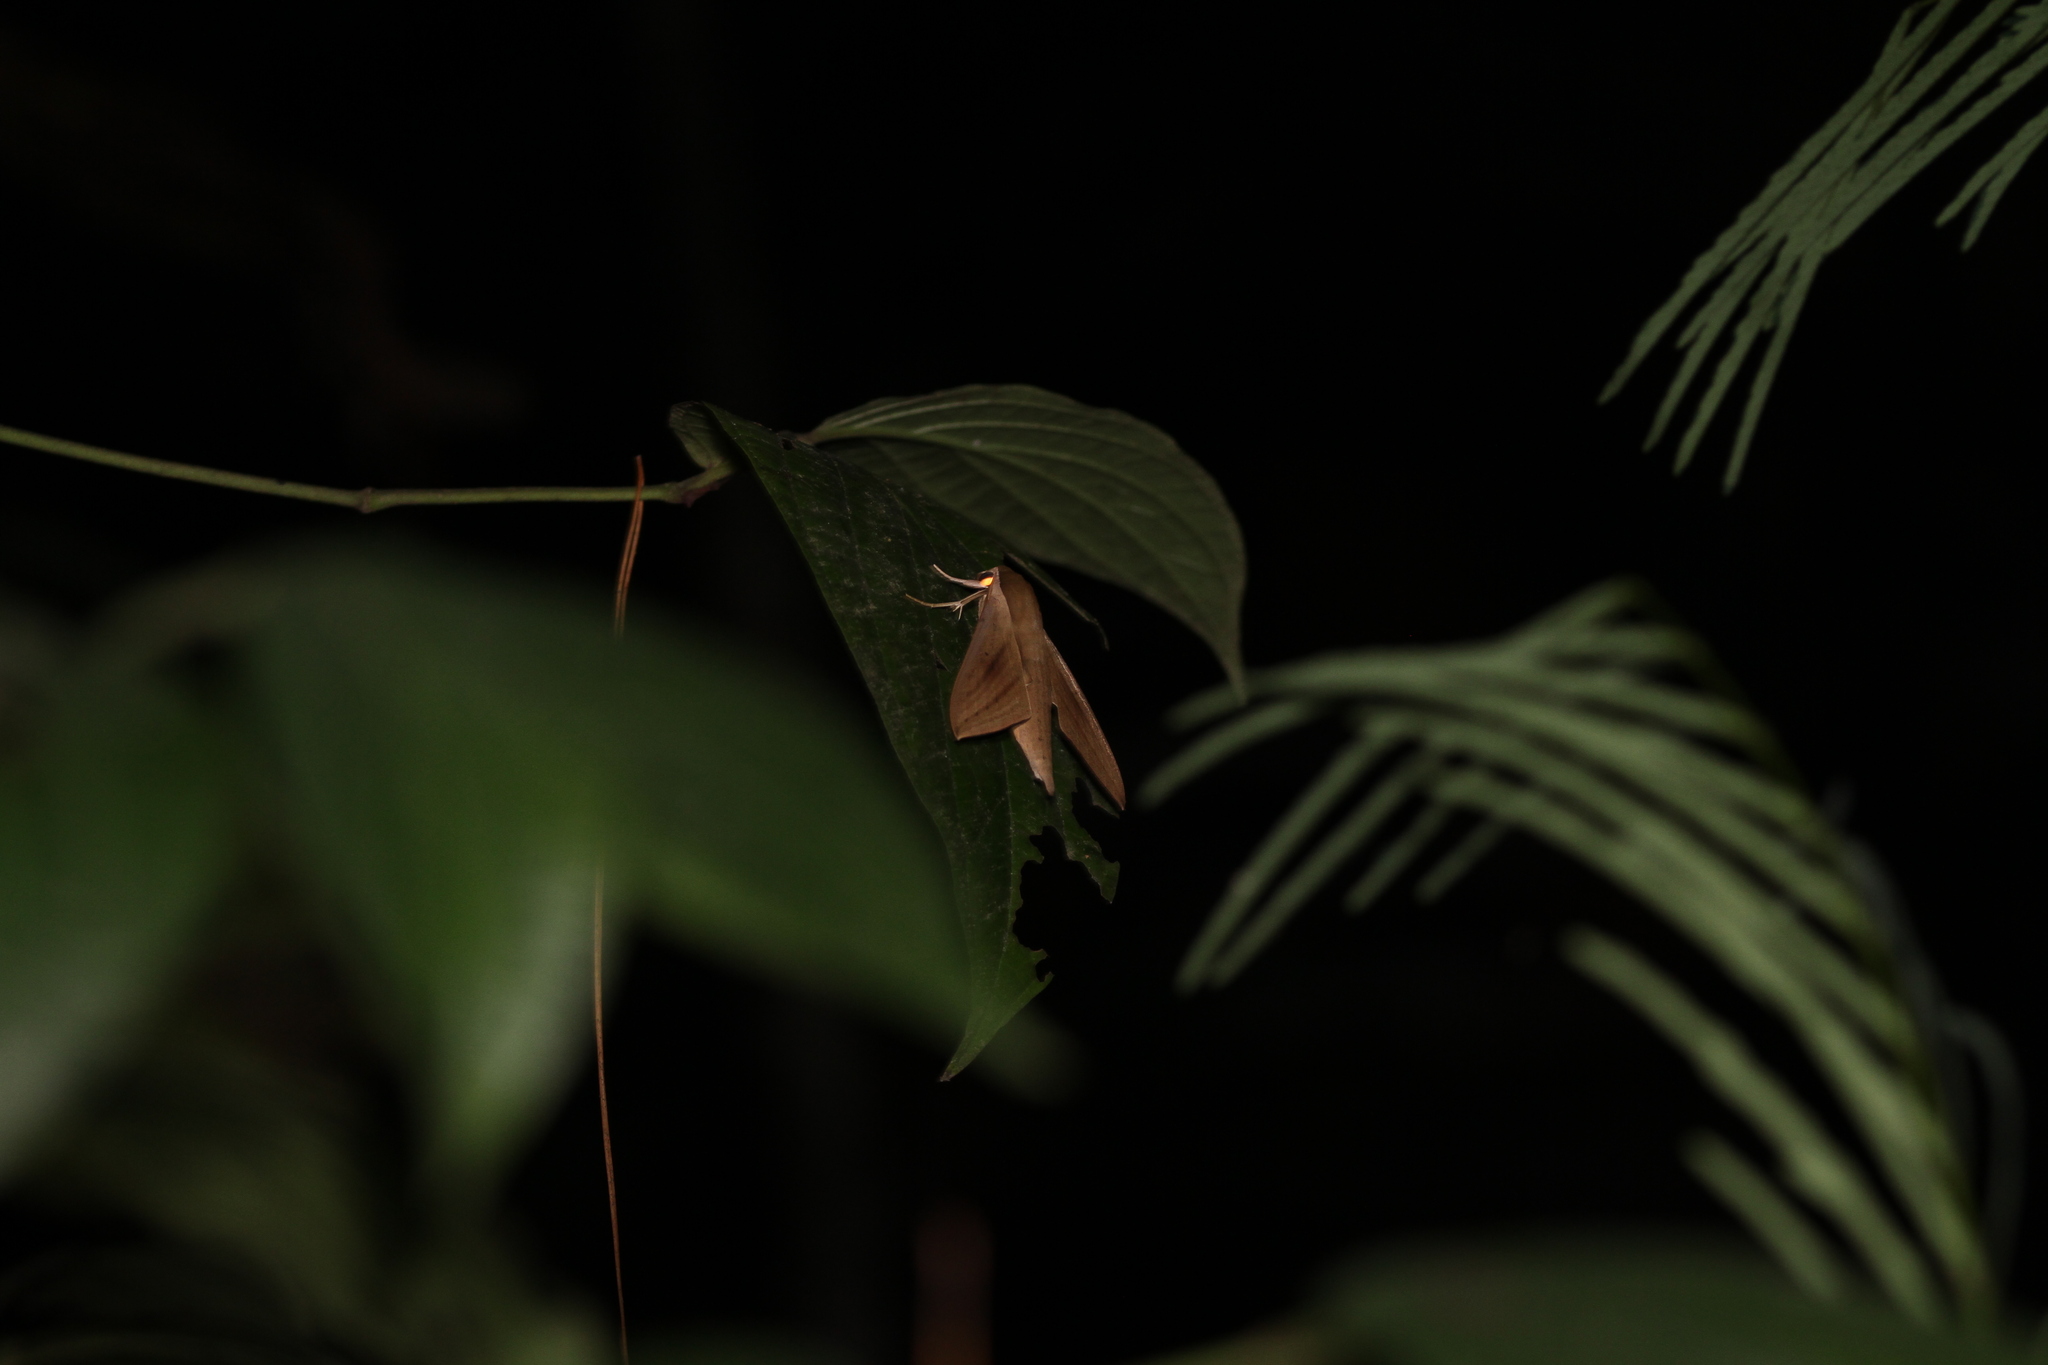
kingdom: Animalia
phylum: Arthropoda
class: Insecta
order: Lepidoptera
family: Sphingidae
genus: Theretra
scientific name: Theretra rhesus
